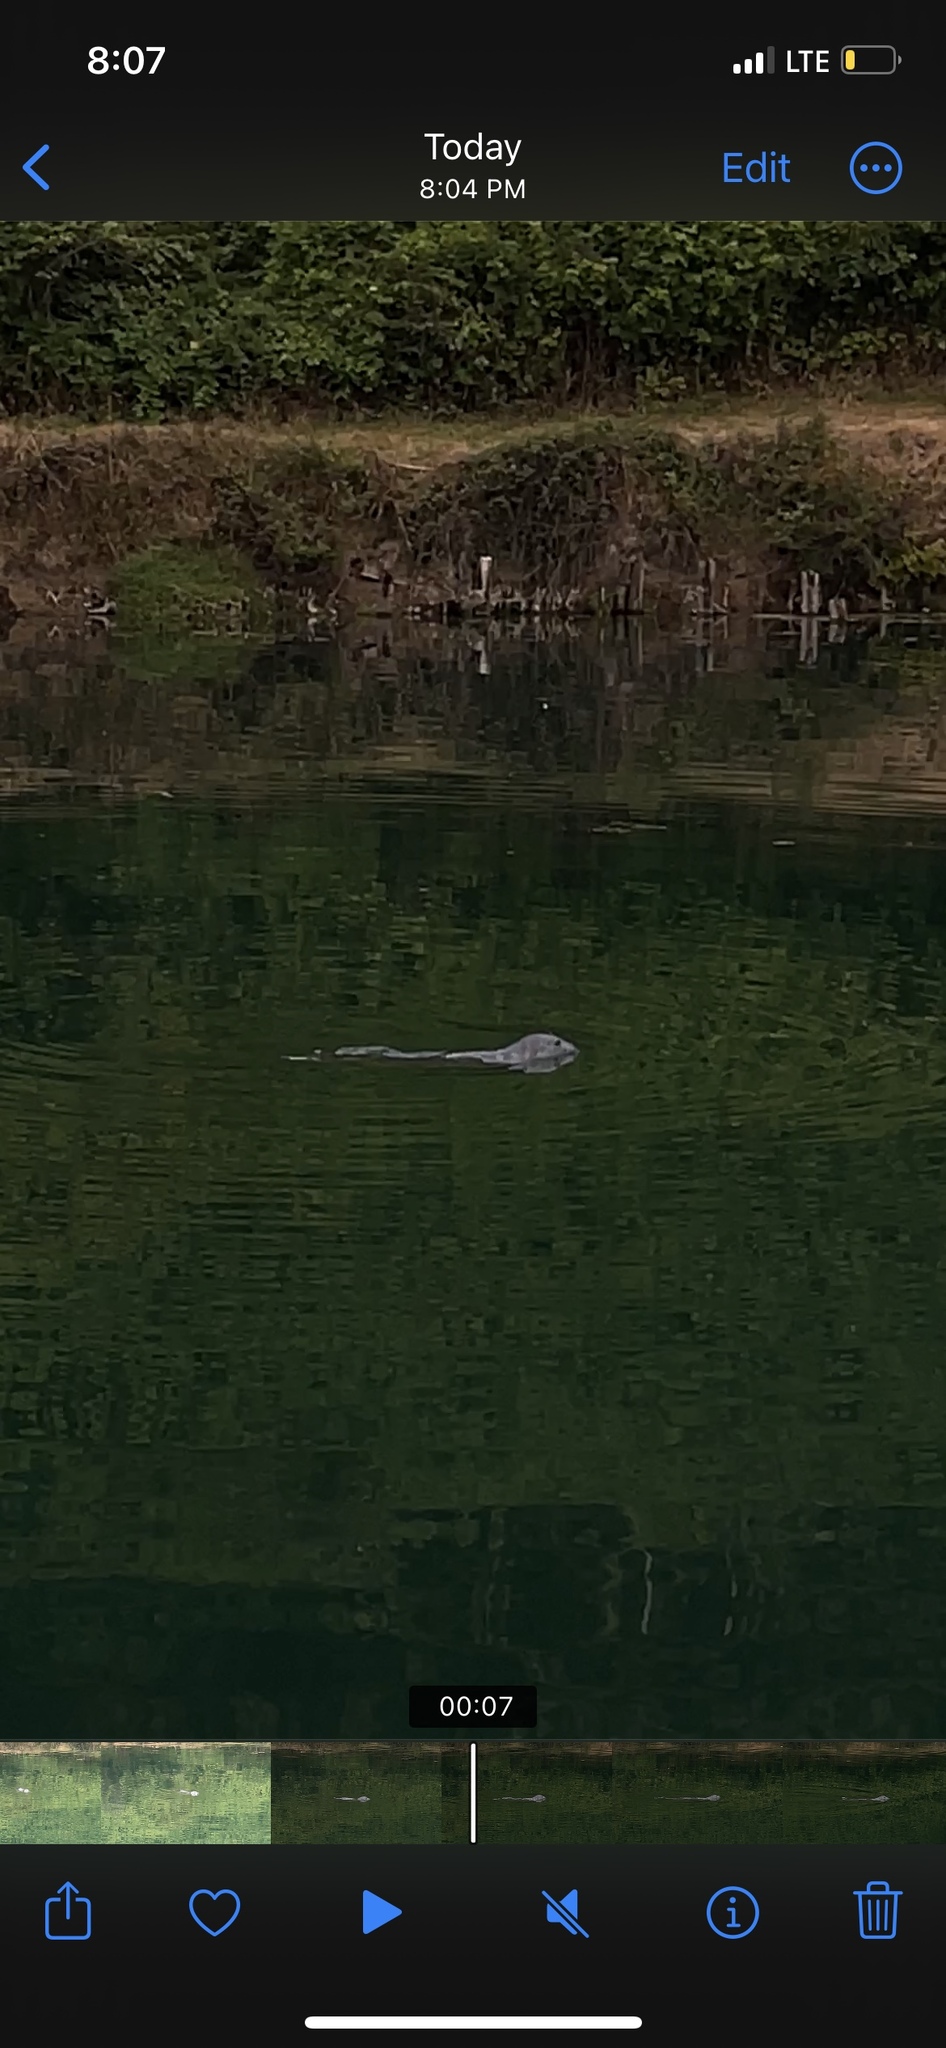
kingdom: Animalia
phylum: Chordata
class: Mammalia
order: Carnivora
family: Phocidae
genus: Phoca
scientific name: Phoca vitulina
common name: Harbor seal
